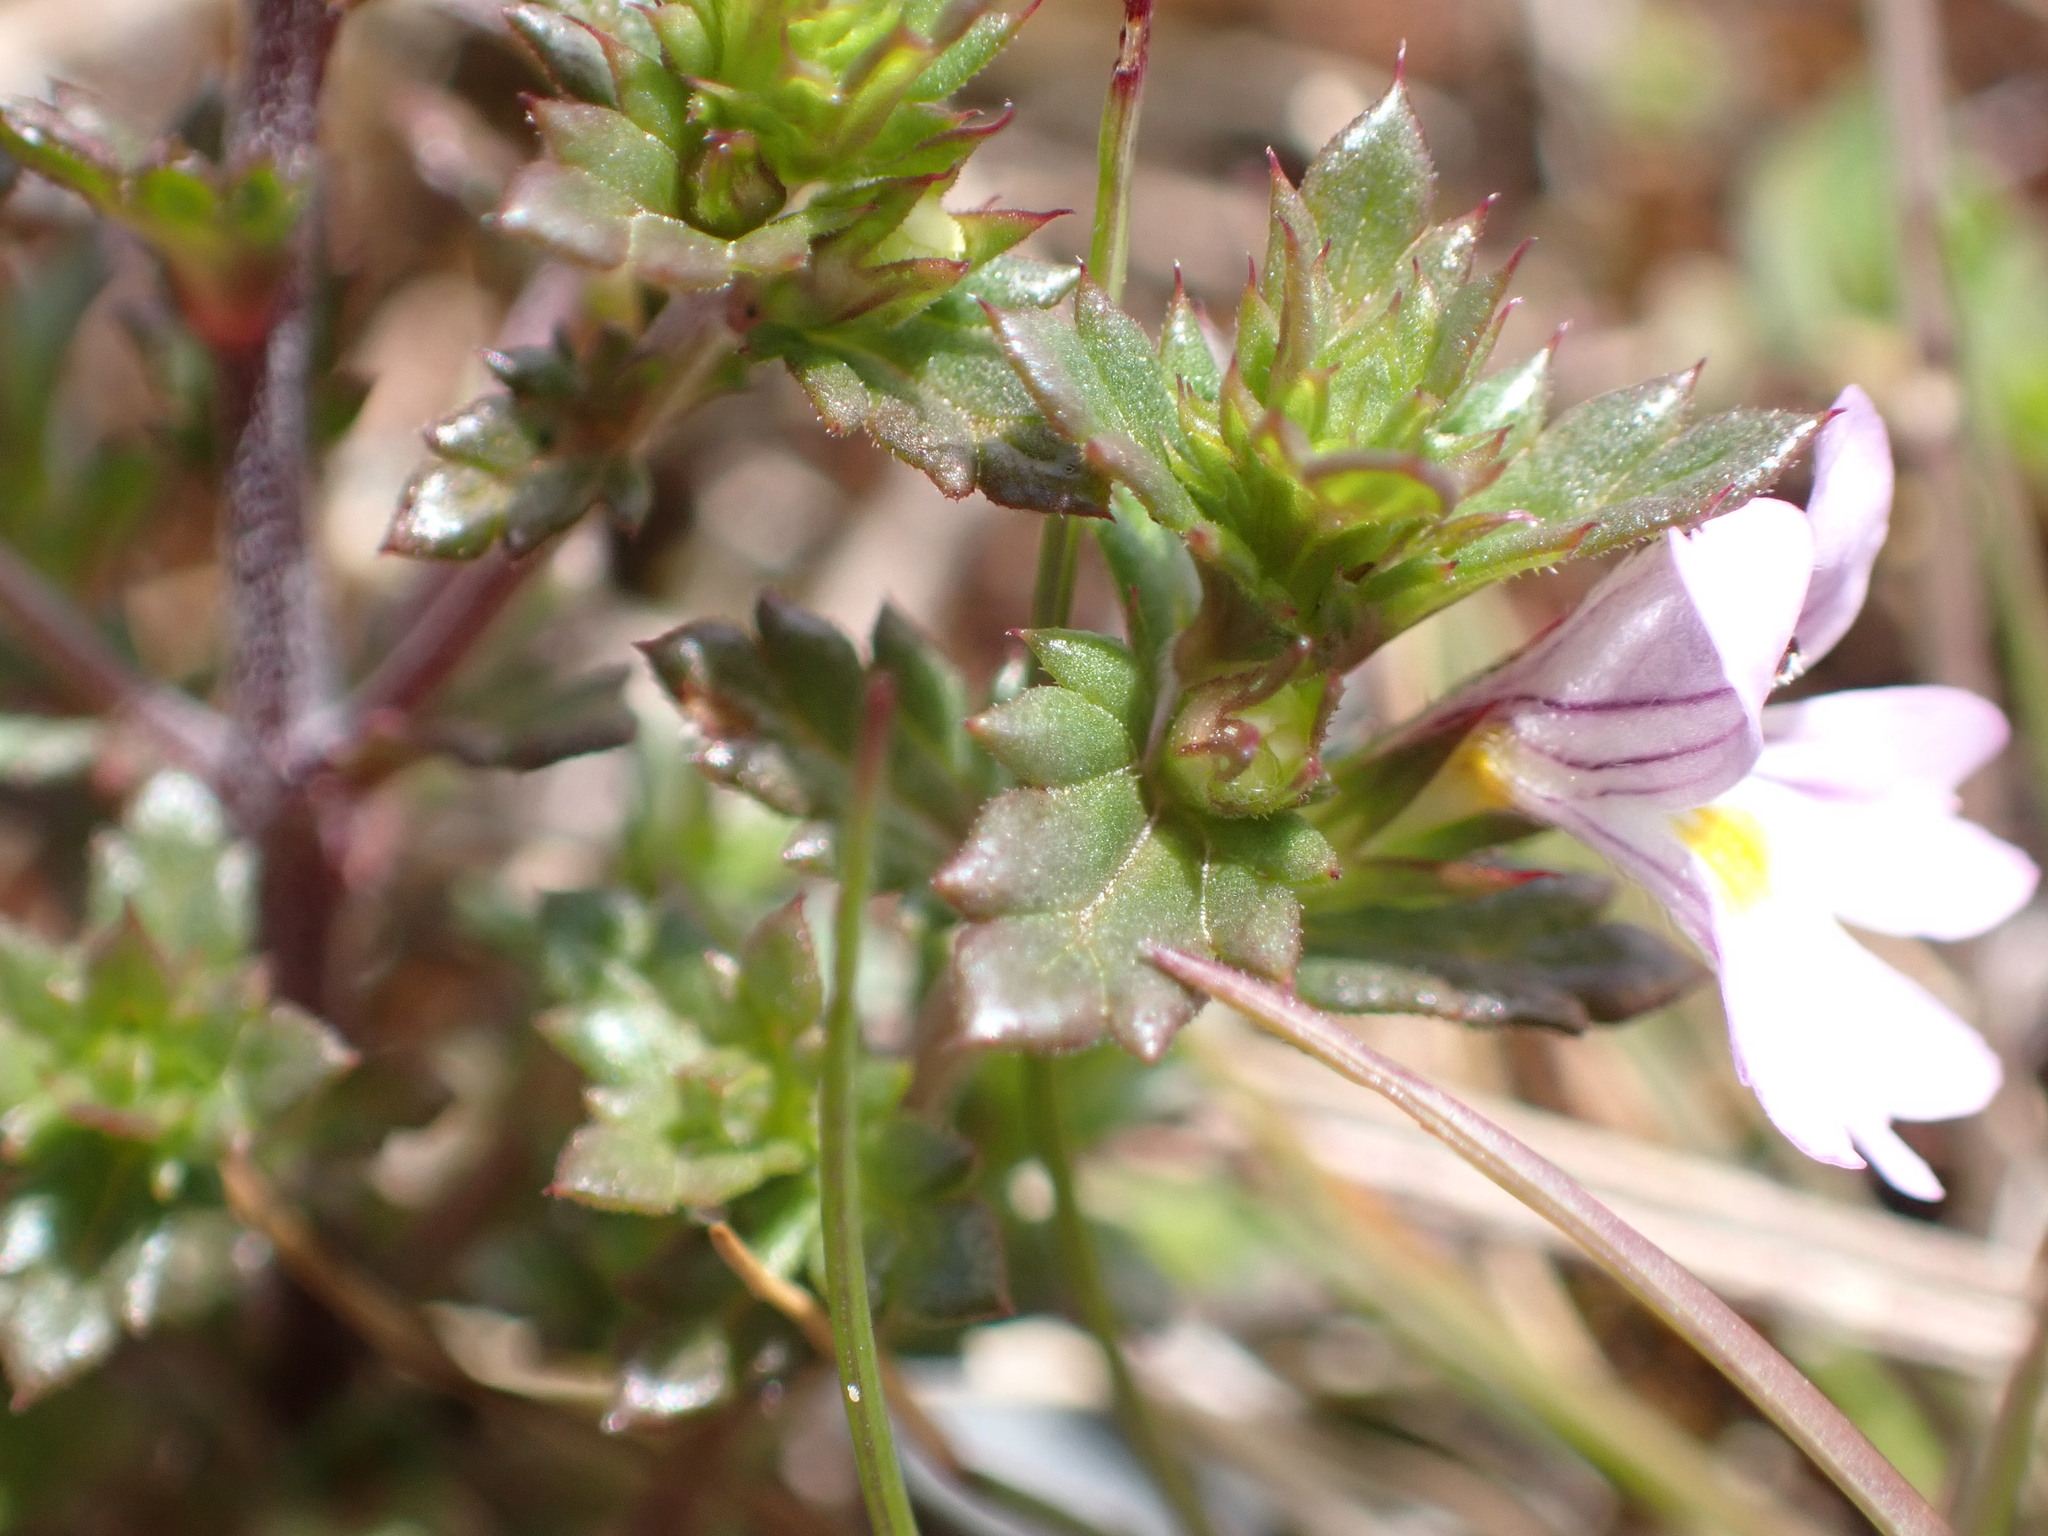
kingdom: Plantae
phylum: Tracheophyta
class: Magnoliopsida
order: Lamiales
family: Orobanchaceae
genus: Euphrasia
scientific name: Euphrasia nemorosa
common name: Common eyebright
